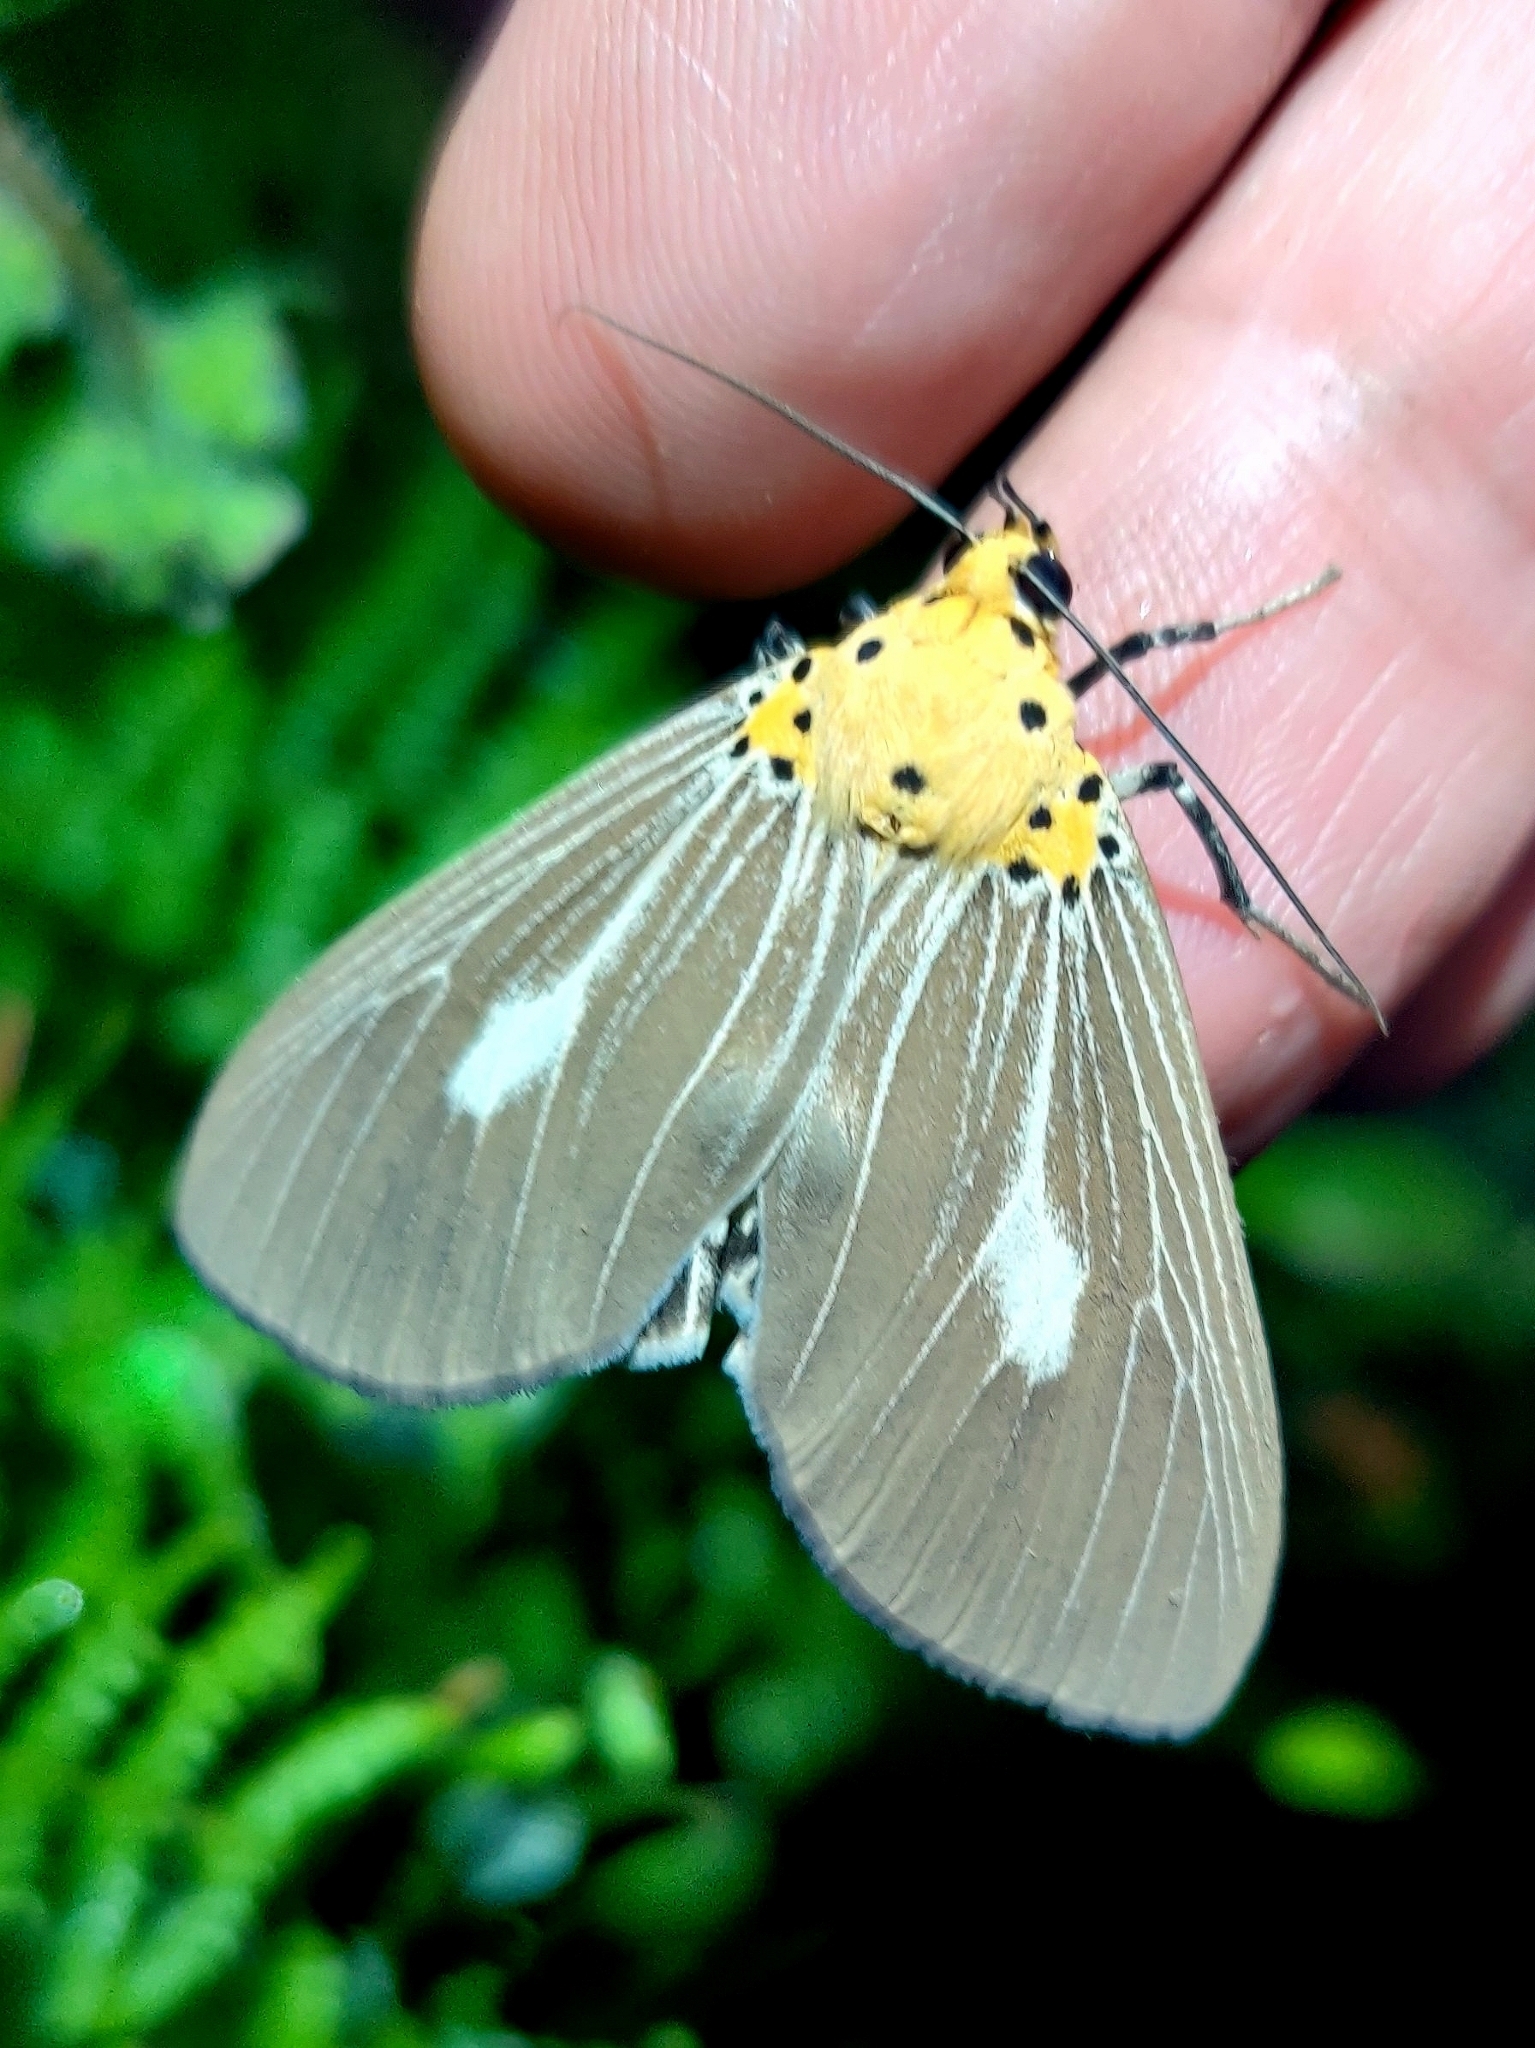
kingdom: Animalia
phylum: Arthropoda
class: Insecta
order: Lepidoptera
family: Erebidae
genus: Asota
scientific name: Asota canaraica
